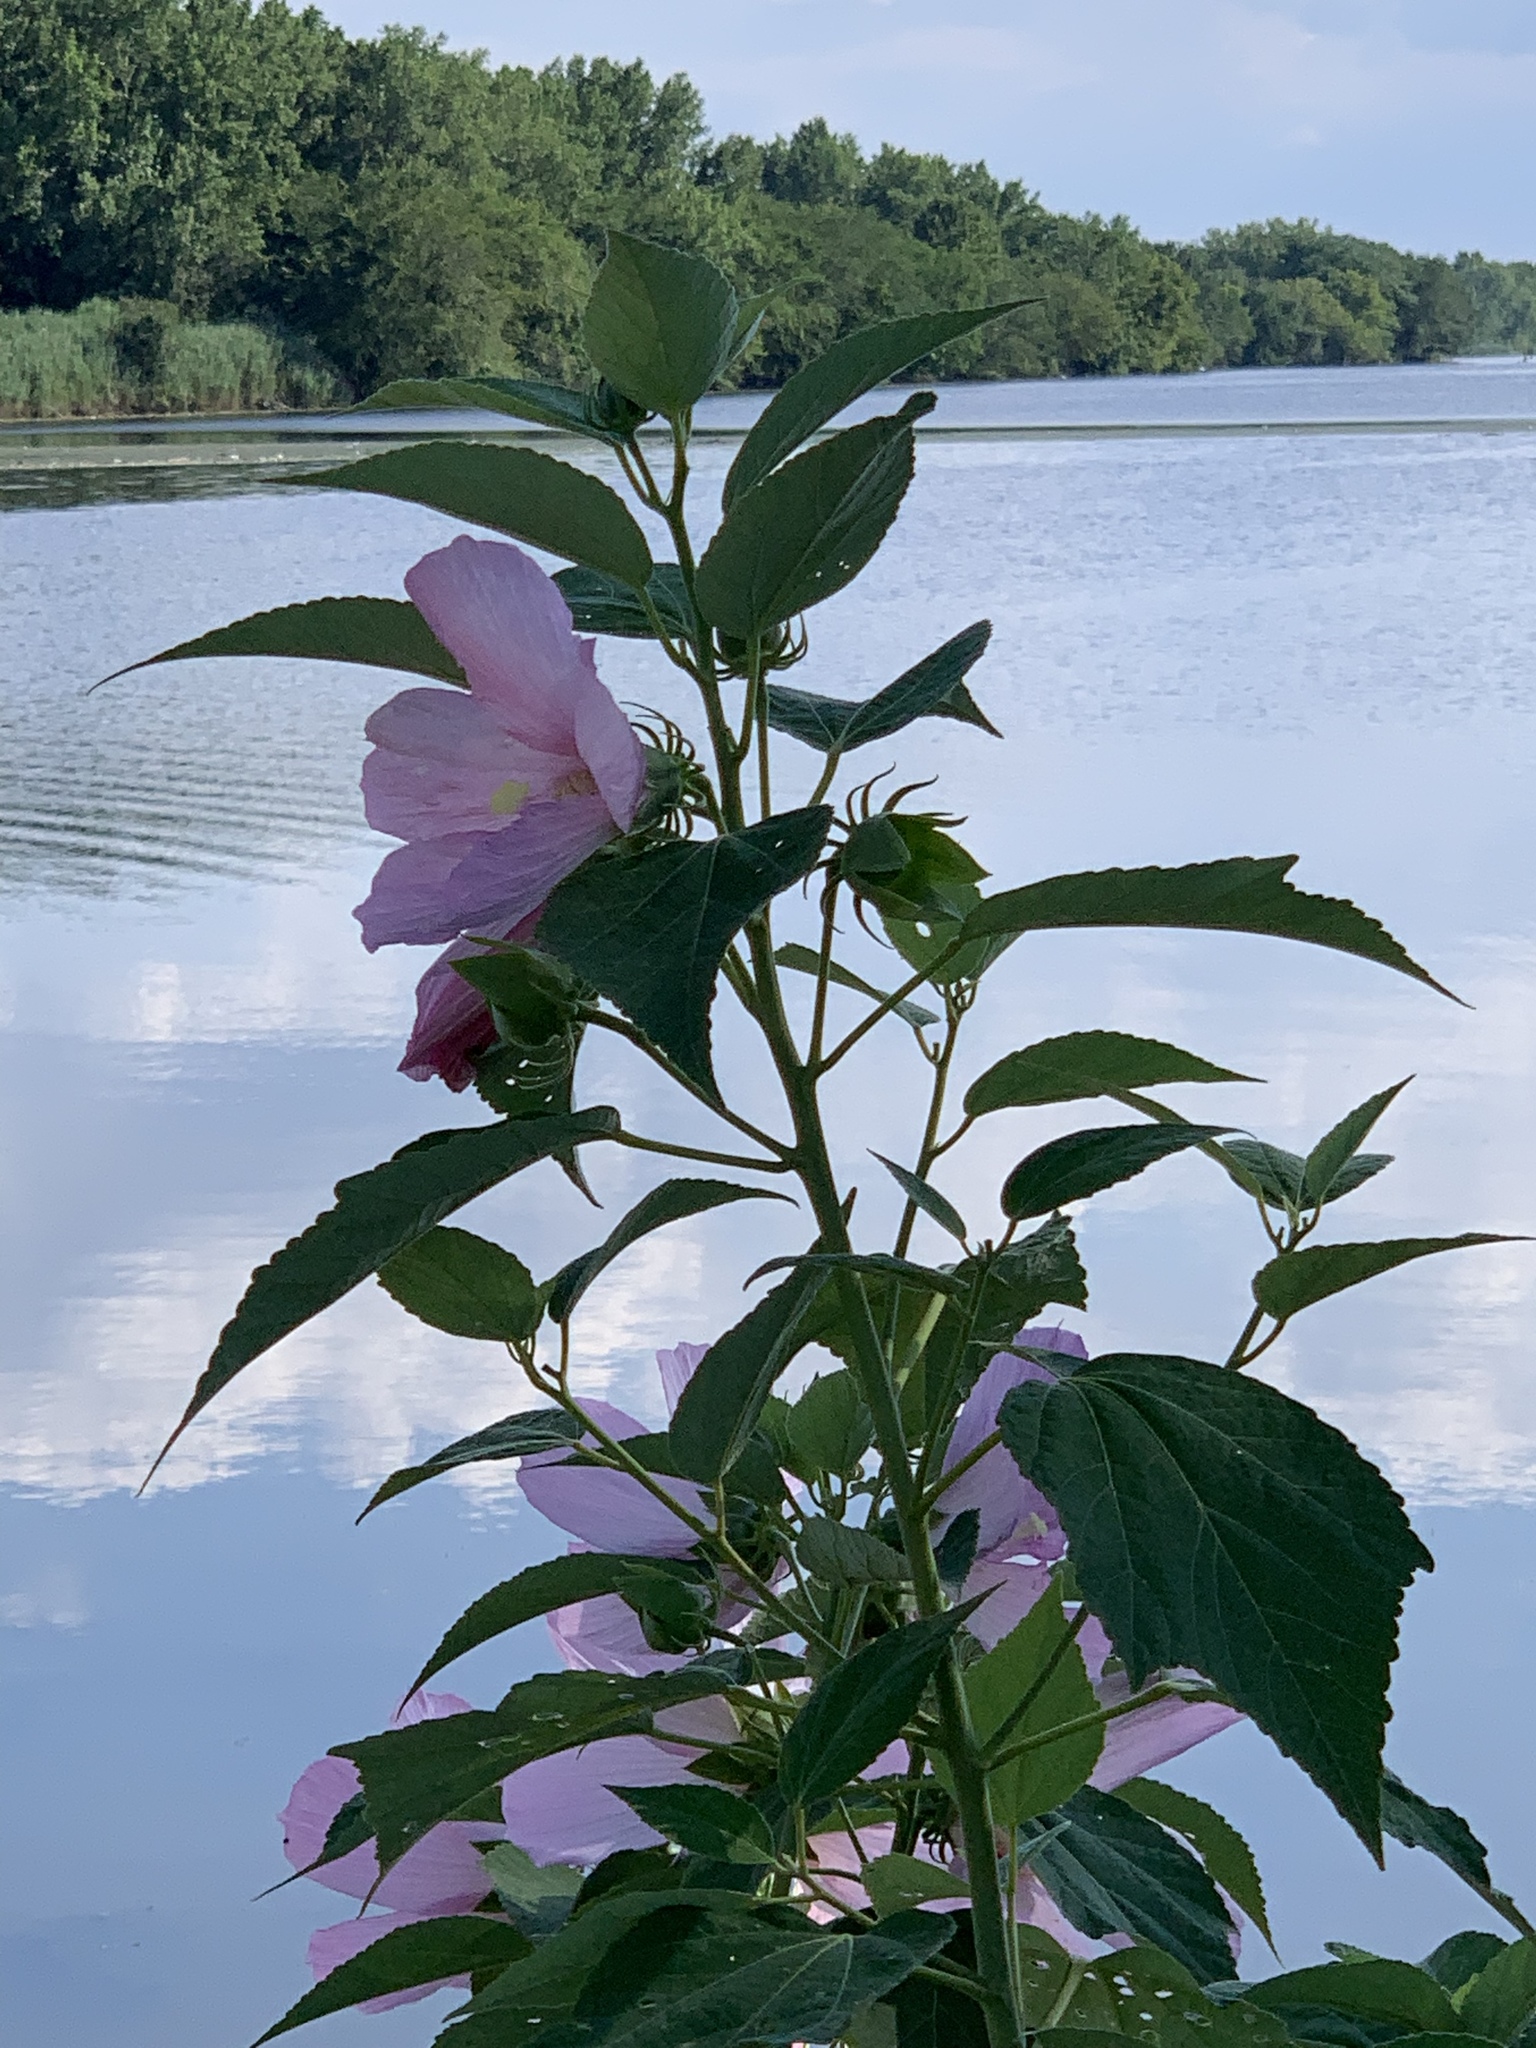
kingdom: Plantae
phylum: Tracheophyta
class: Magnoliopsida
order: Malvales
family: Malvaceae
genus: Hibiscus
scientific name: Hibiscus moscheutos
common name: Common rose-mallow
